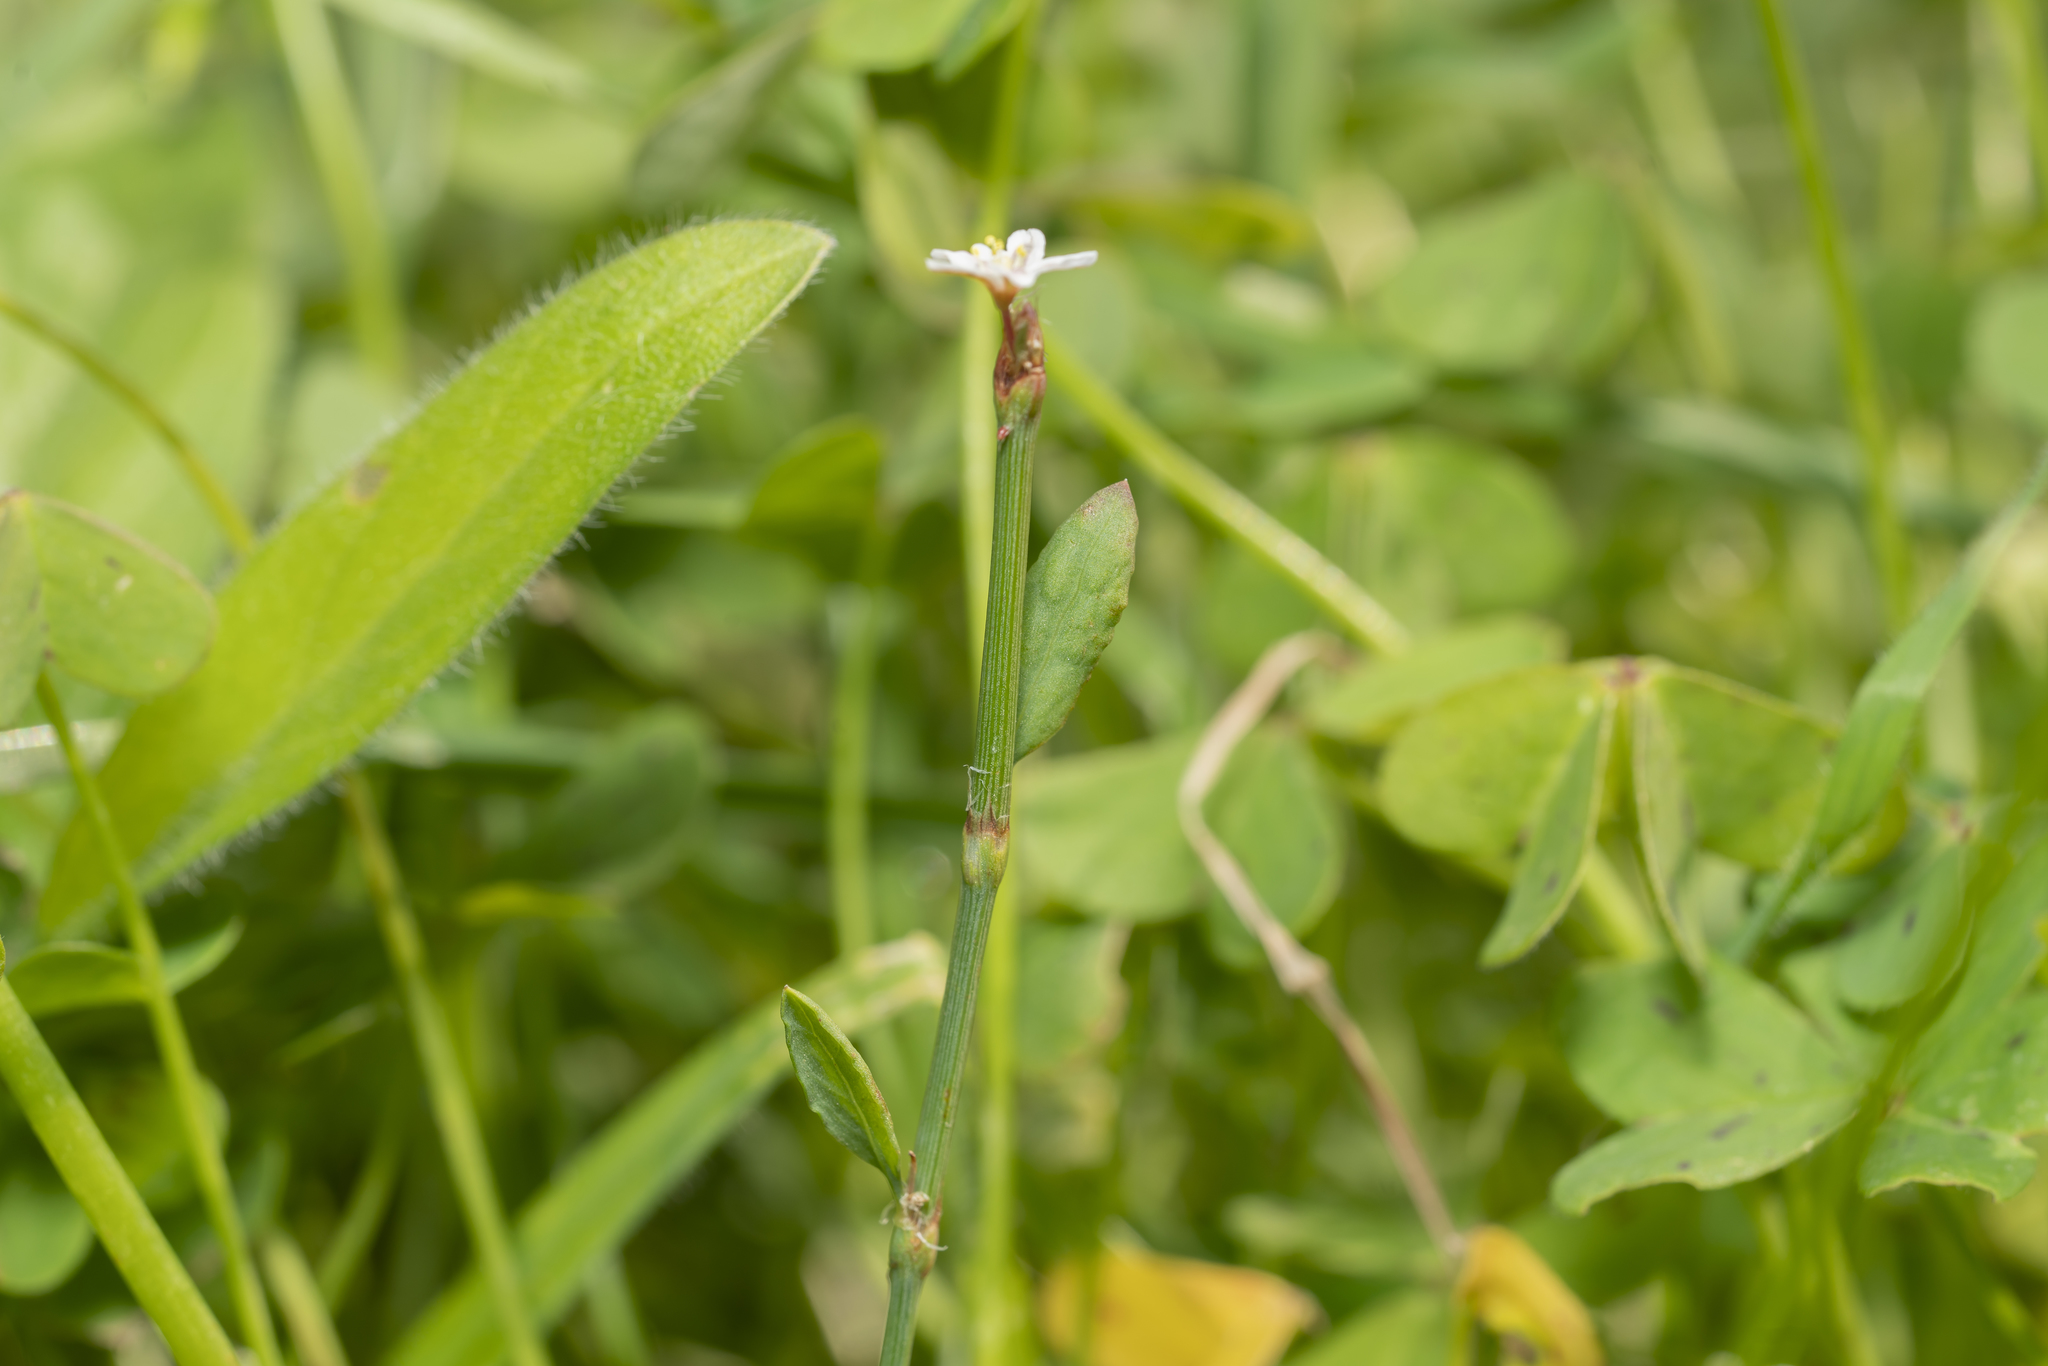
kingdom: Plantae
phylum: Tracheophyta
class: Magnoliopsida
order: Caryophyllales
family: Polygonaceae
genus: Polygonum
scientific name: Polygonum equisetiforme
